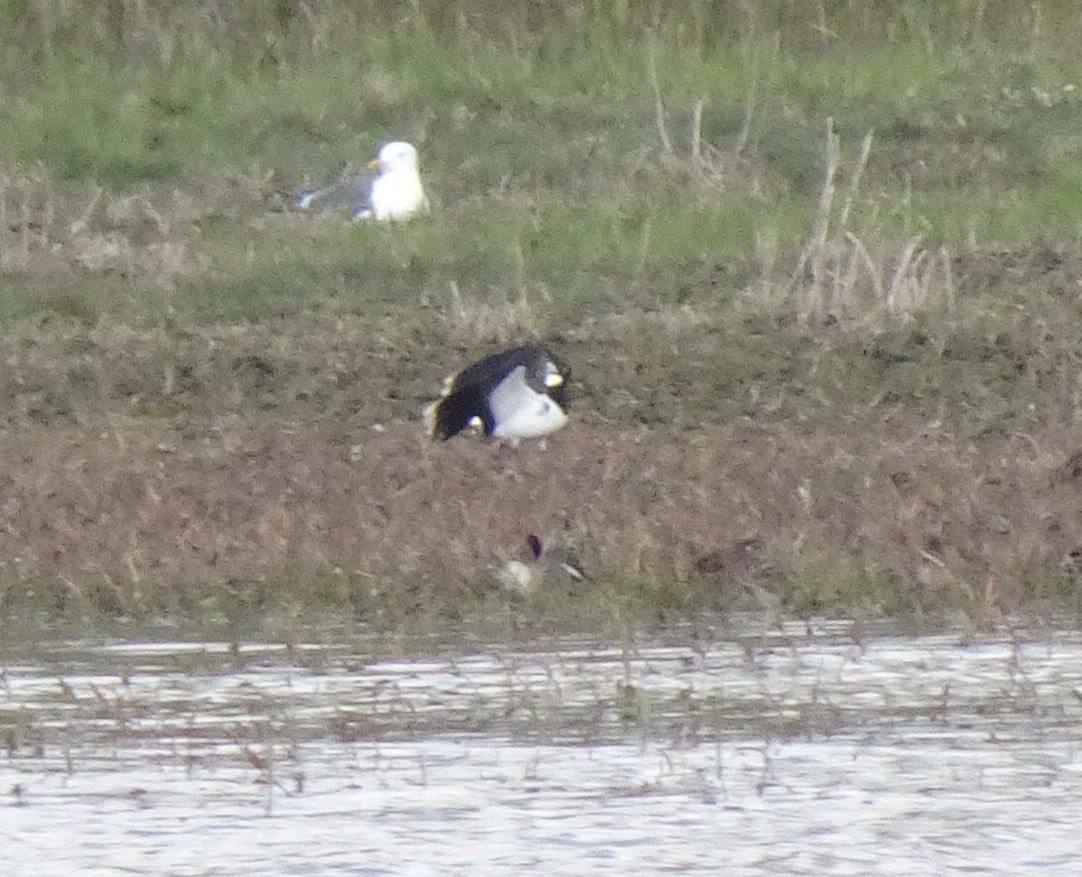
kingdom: Animalia
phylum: Chordata
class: Aves
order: Charadriiformes
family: Charadriidae
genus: Vanellus
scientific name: Vanellus vanellus
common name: Northern lapwing
